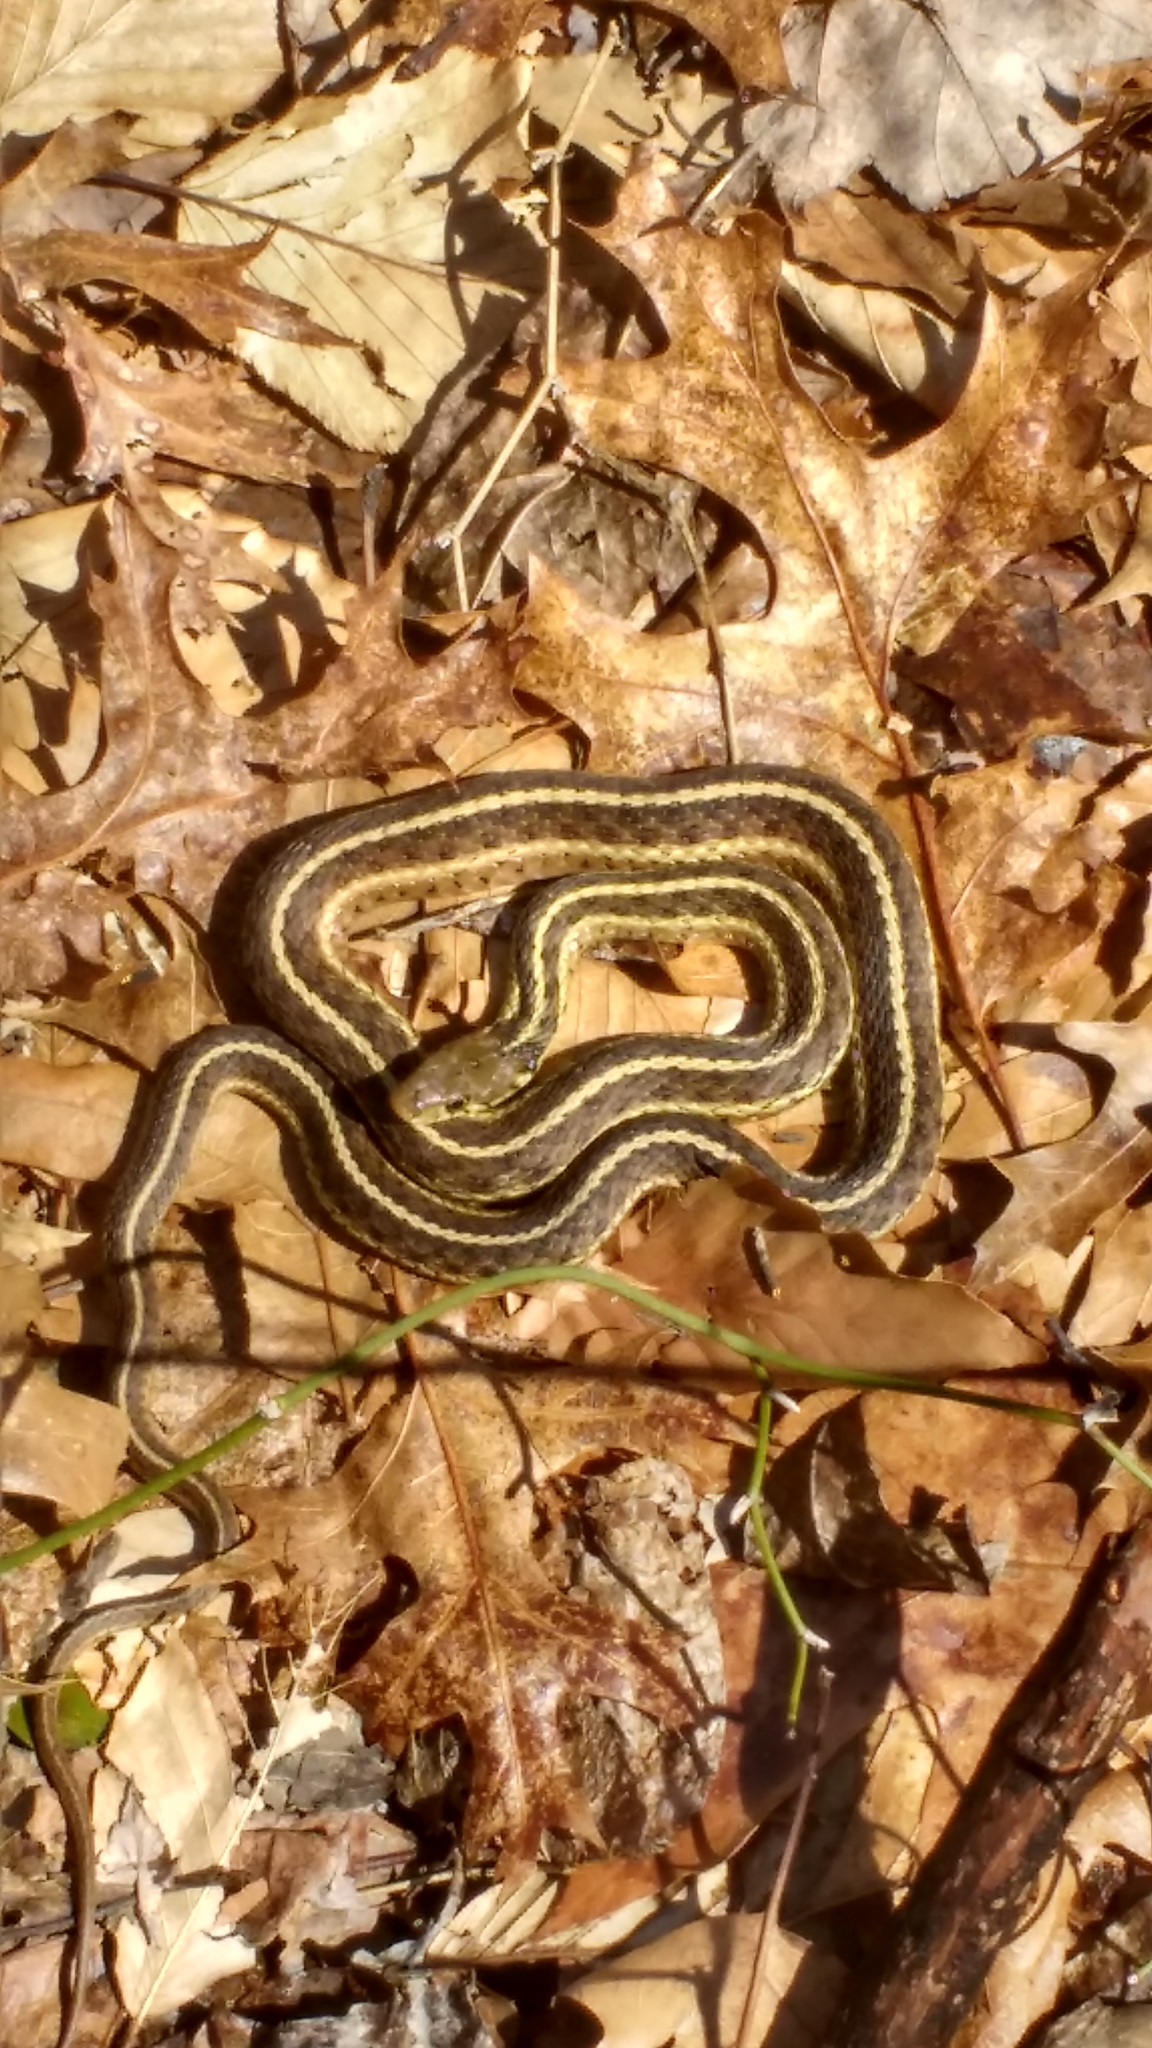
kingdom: Animalia
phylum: Chordata
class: Squamata
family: Colubridae
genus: Thamnophis
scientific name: Thamnophis sirtalis
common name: Common garter snake
